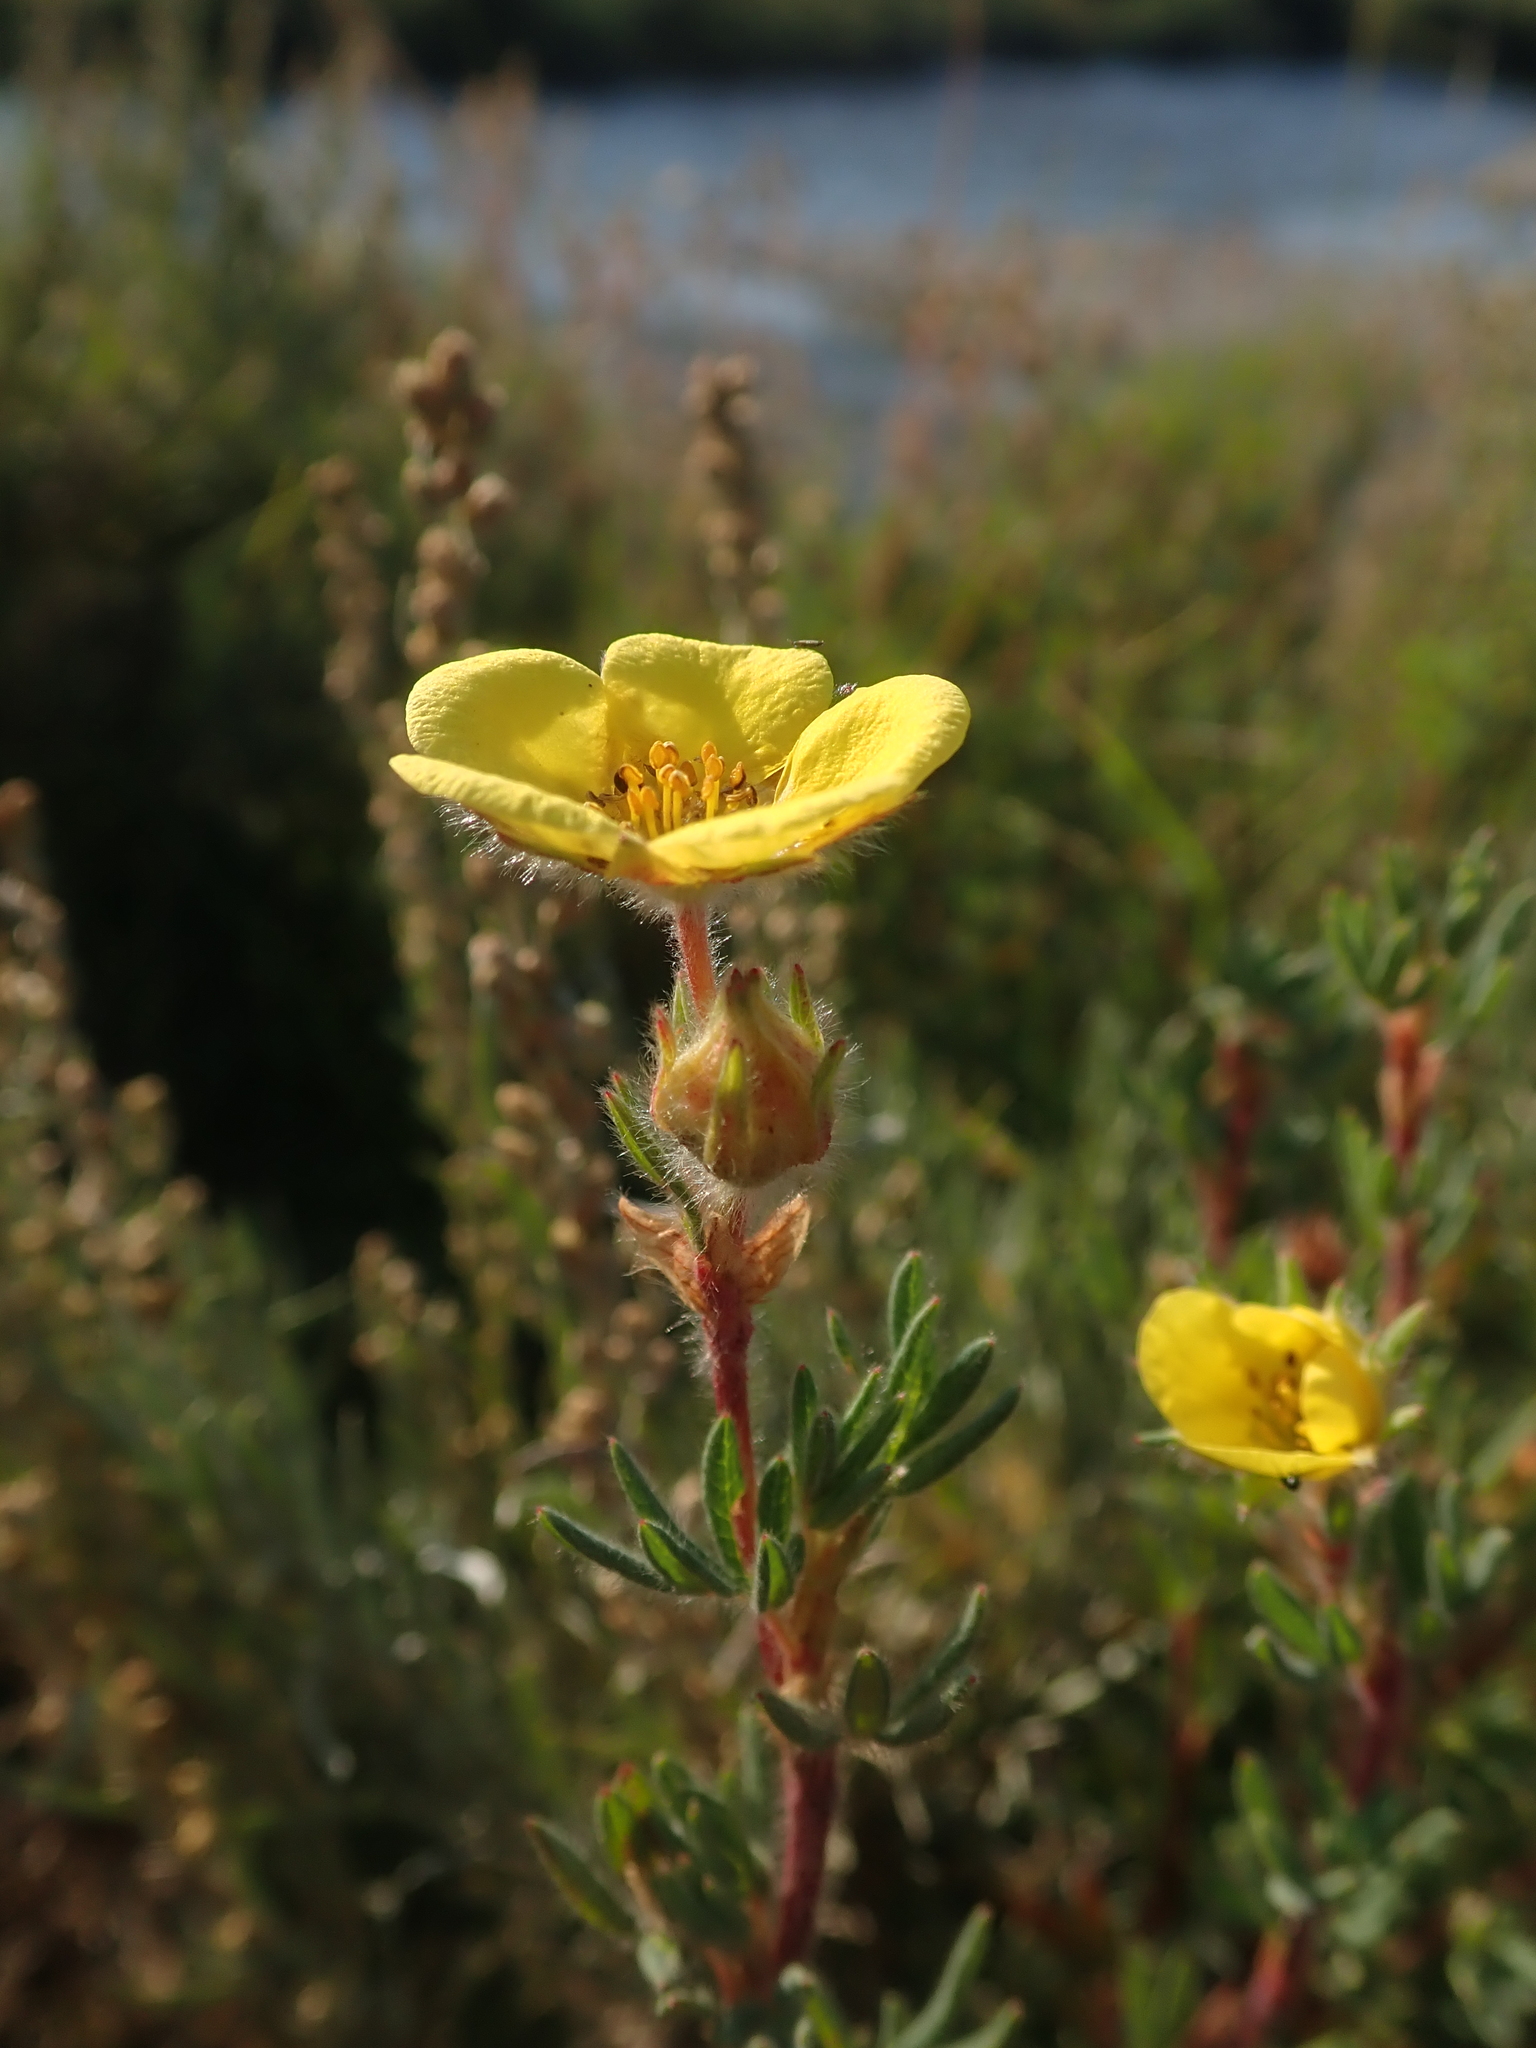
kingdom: Plantae
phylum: Tracheophyta
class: Magnoliopsida
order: Rosales
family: Rosaceae
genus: Dasiphora
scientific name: Dasiphora fruticosa
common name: Shrubby cinquefoil
